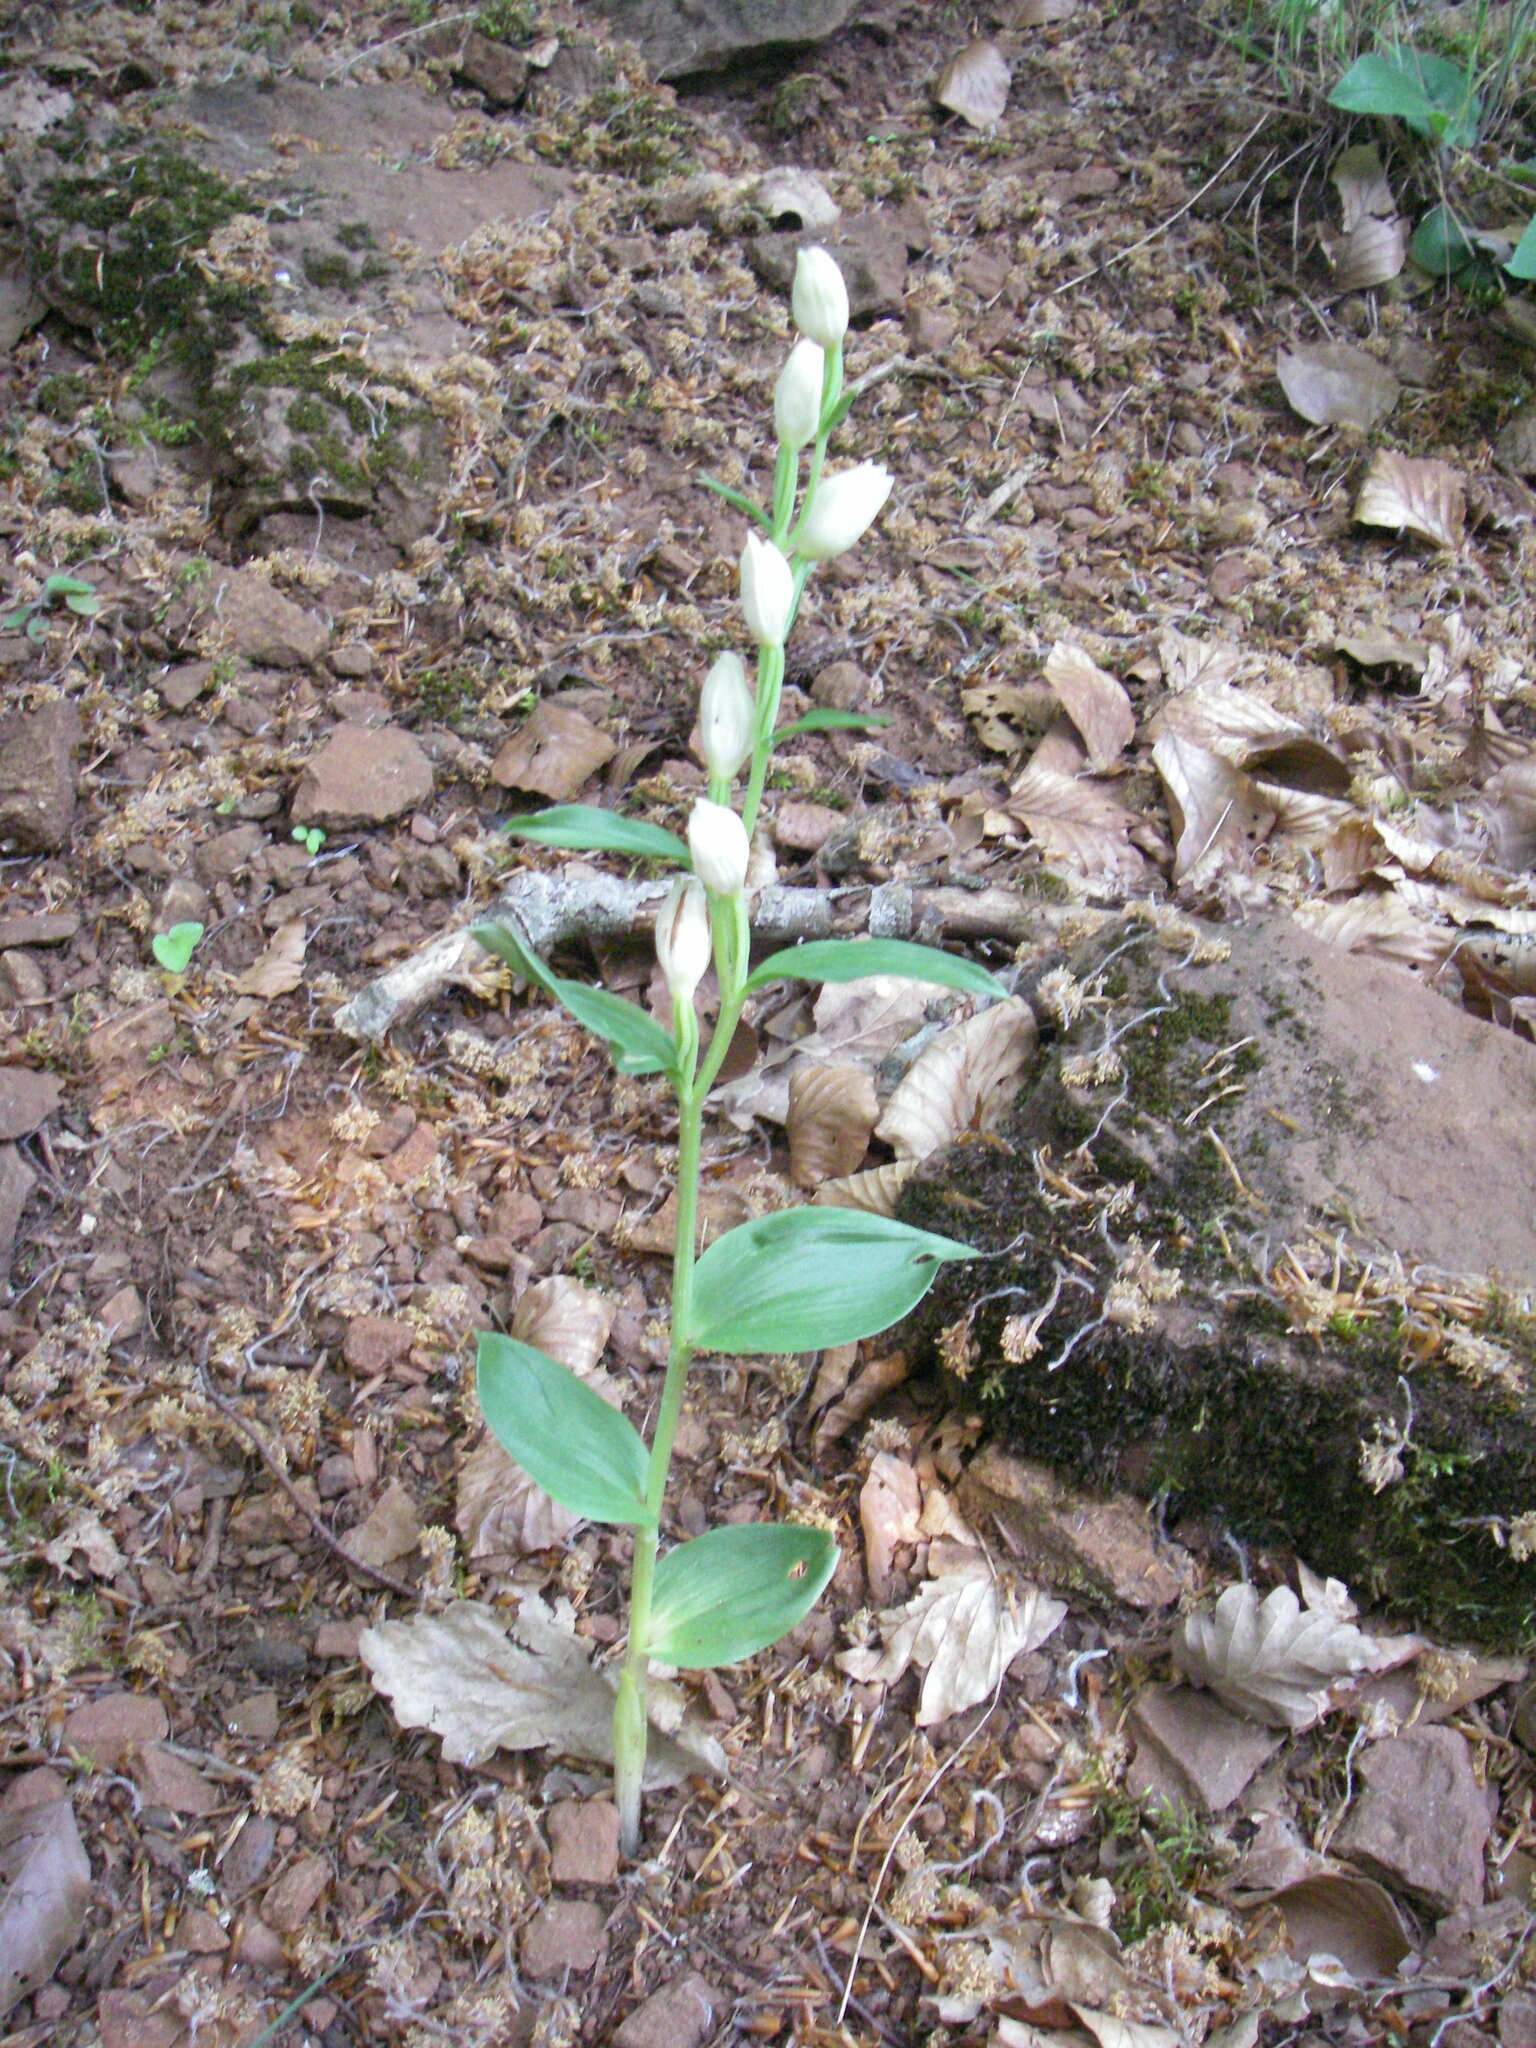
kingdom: Plantae
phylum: Tracheophyta
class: Liliopsida
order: Asparagales
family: Orchidaceae
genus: Cephalanthera
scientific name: Cephalanthera damasonium
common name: White helleborine
